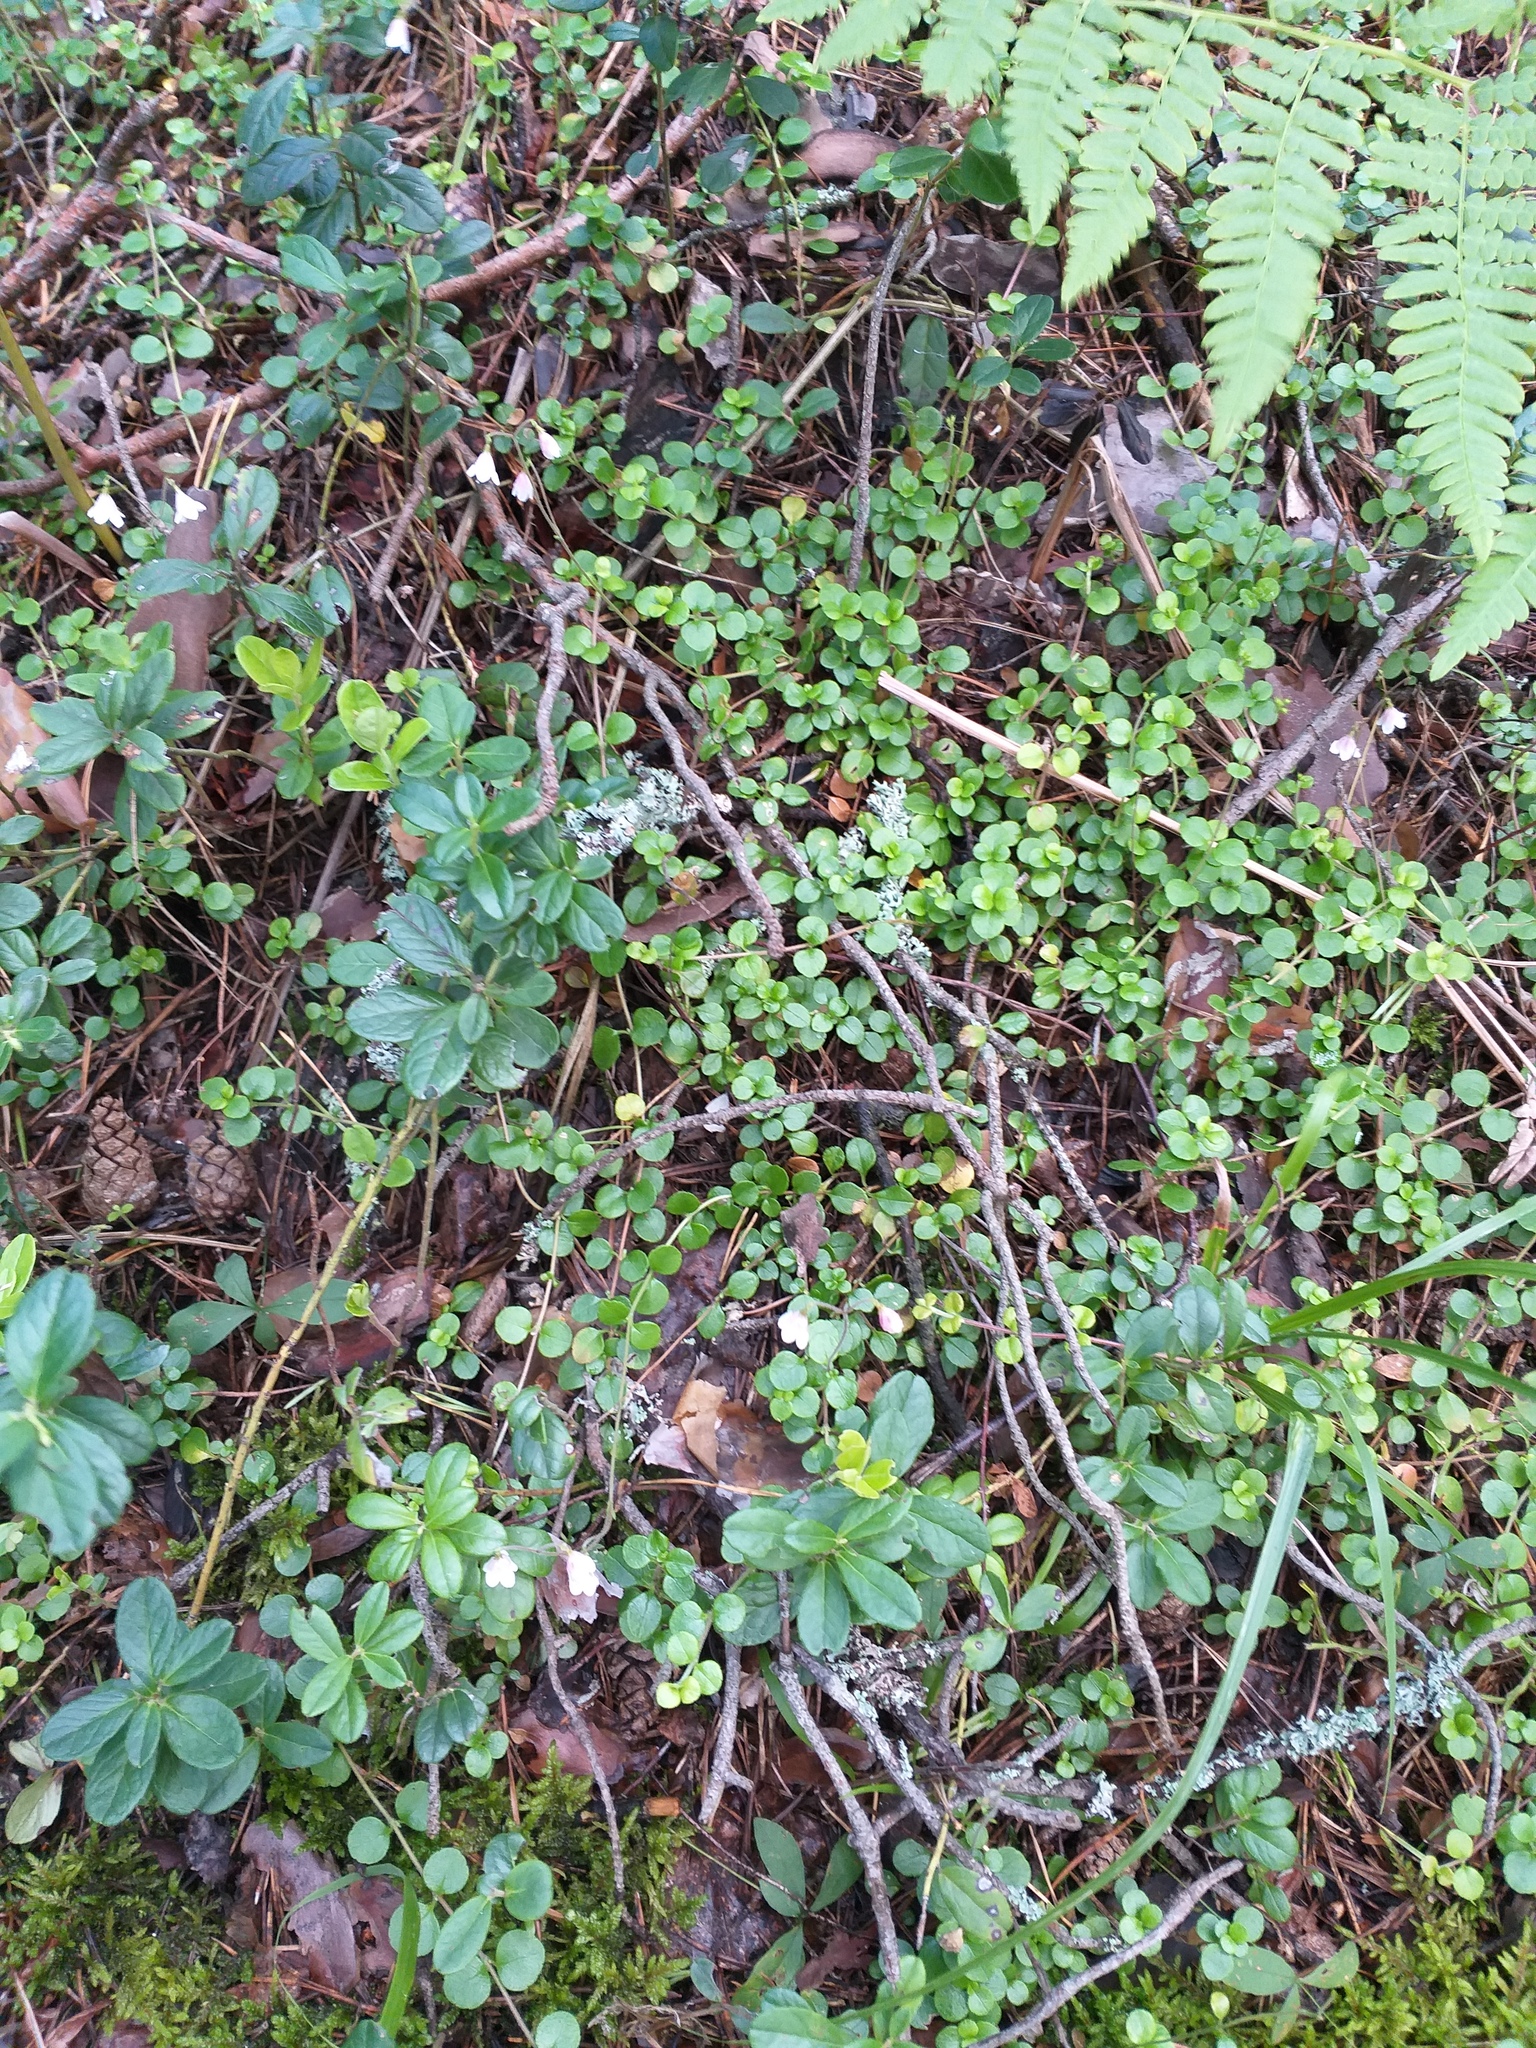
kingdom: Plantae
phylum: Tracheophyta
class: Magnoliopsida
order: Dipsacales
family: Caprifoliaceae
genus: Linnaea
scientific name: Linnaea borealis
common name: Twinflower
